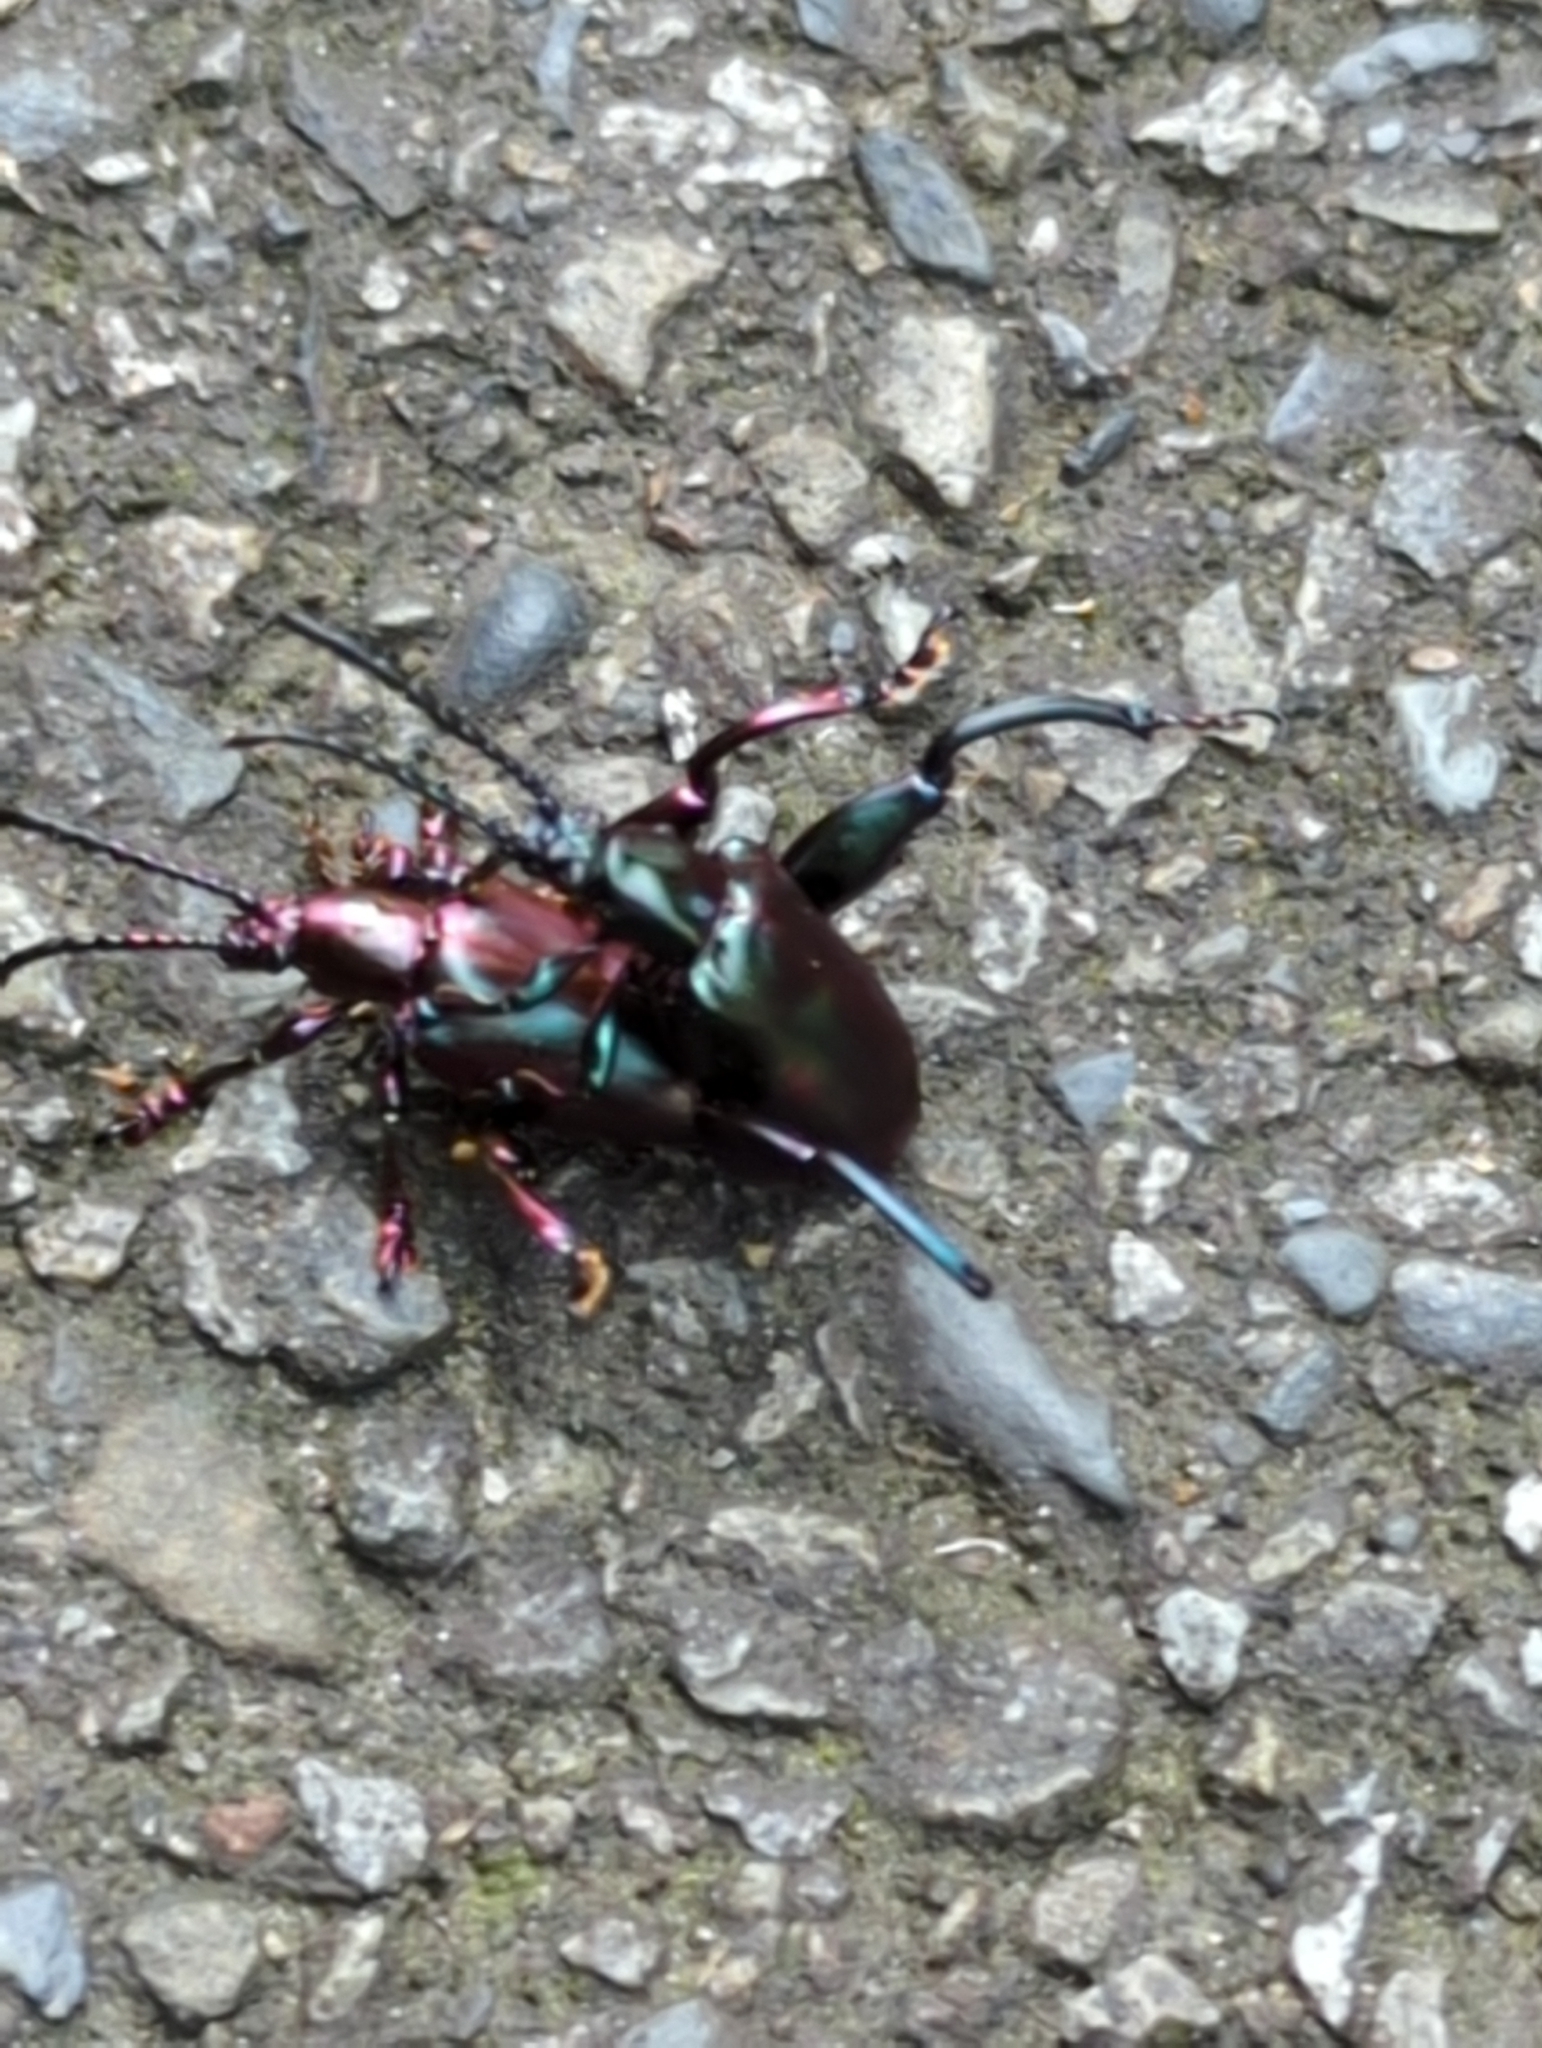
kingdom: Animalia
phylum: Arthropoda
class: Insecta
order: Coleoptera
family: Chrysomelidae
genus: Sagra
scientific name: Sagra femorata
